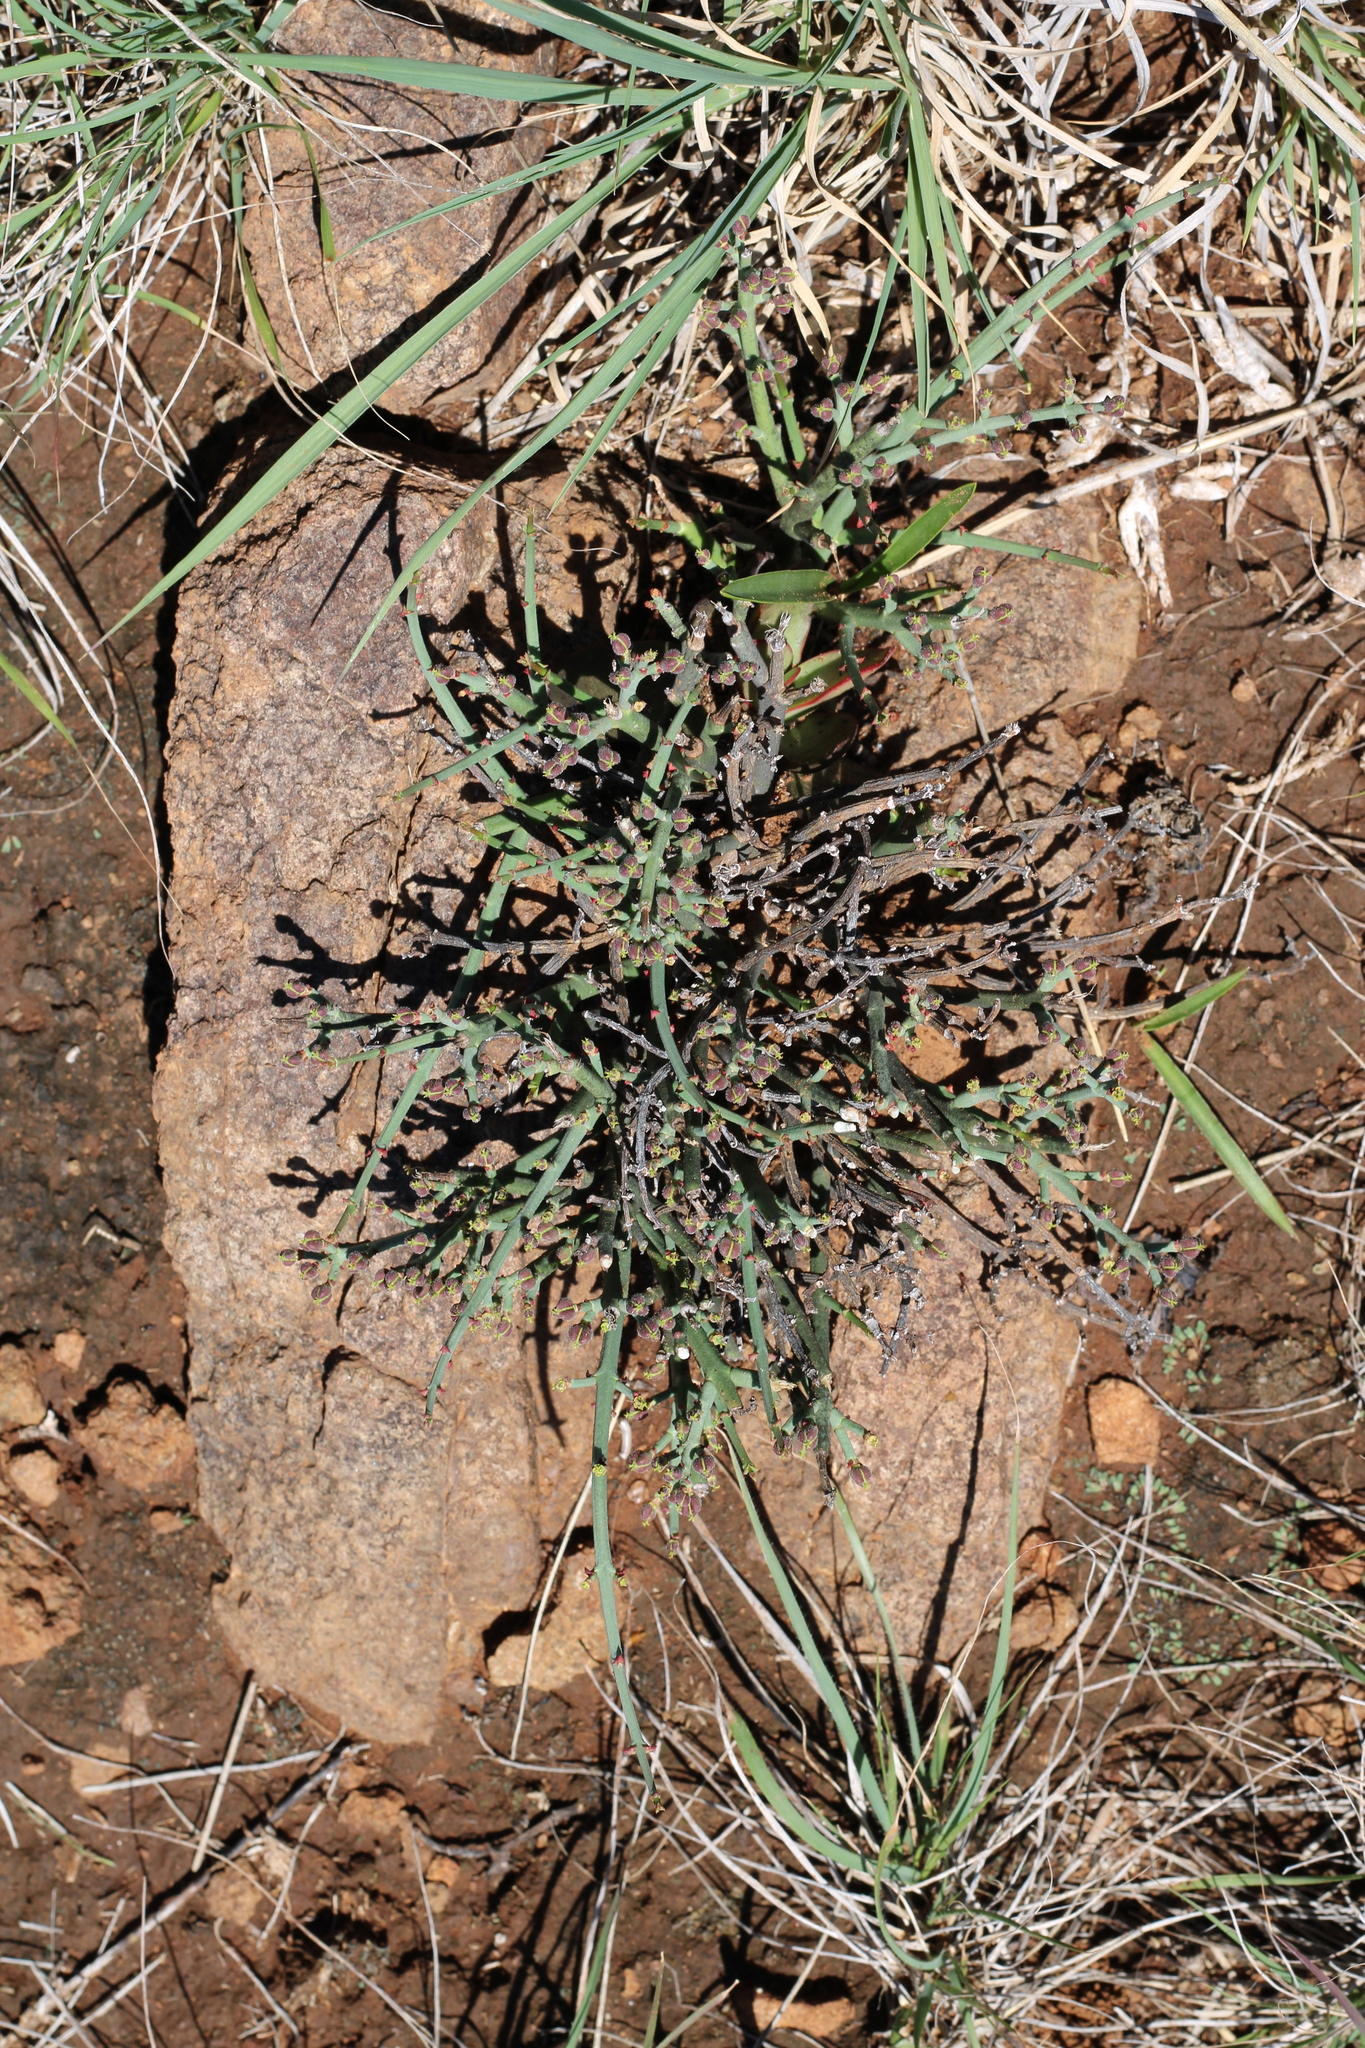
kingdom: Plantae
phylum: Tracheophyta
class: Magnoliopsida
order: Malpighiales
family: Euphorbiaceae
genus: Euphorbia
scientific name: Euphorbia rhombifolia
